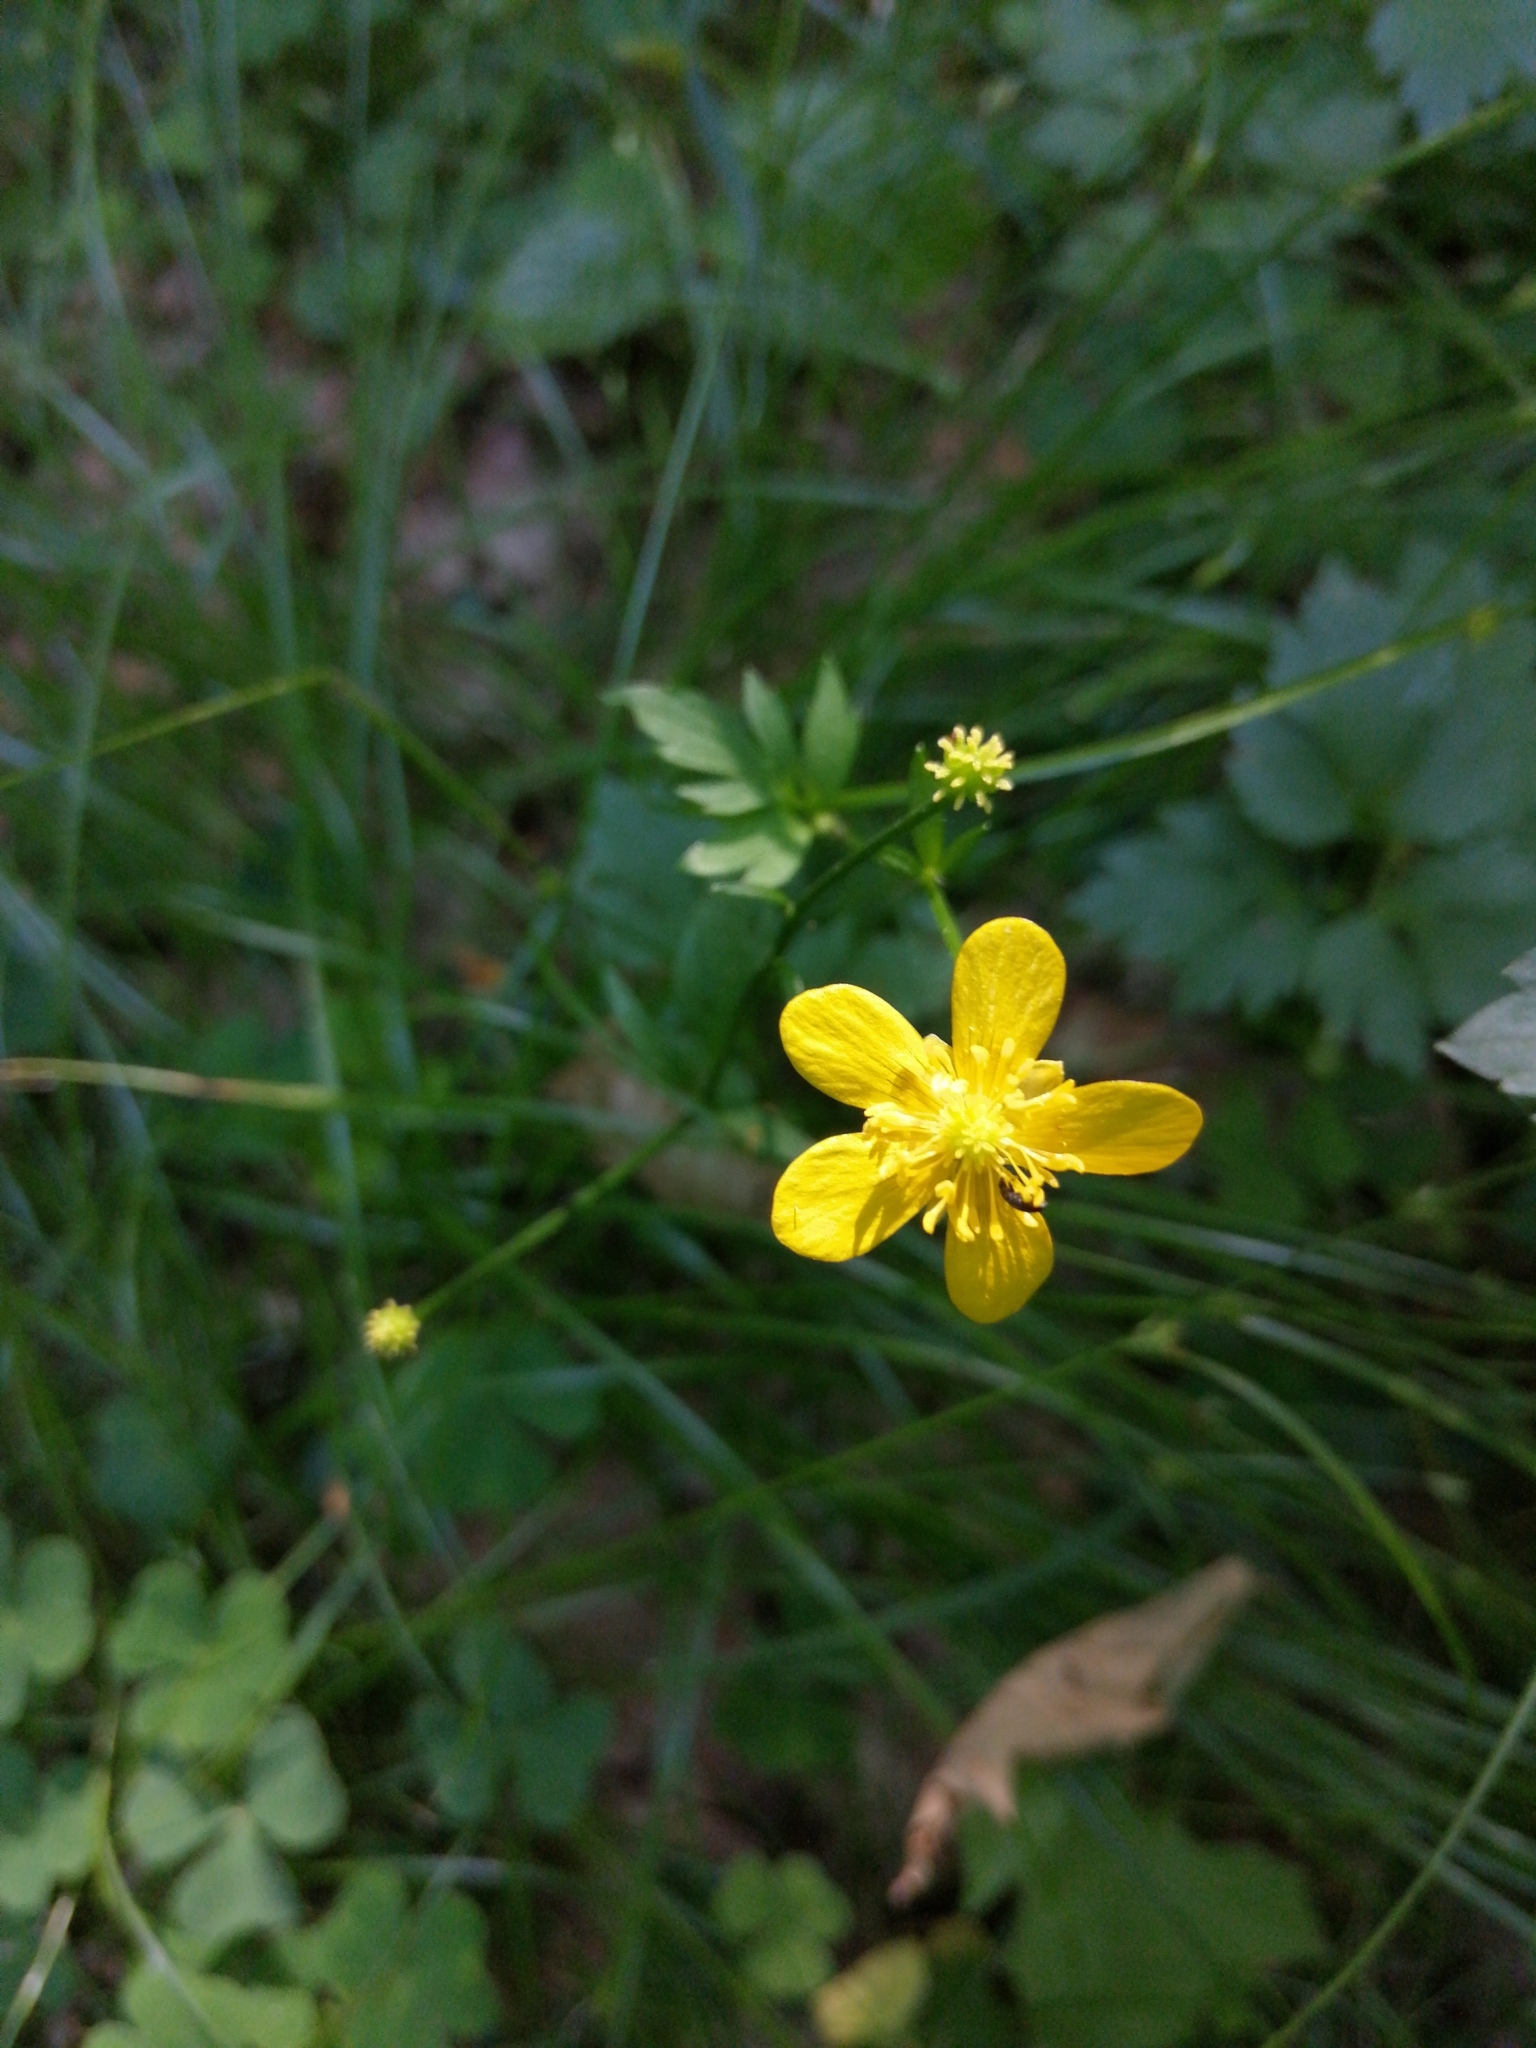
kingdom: Plantae
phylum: Tracheophyta
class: Magnoliopsida
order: Ranunculales
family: Ranunculaceae
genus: Ranunculus
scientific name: Ranunculus repens
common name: Creeping buttercup
